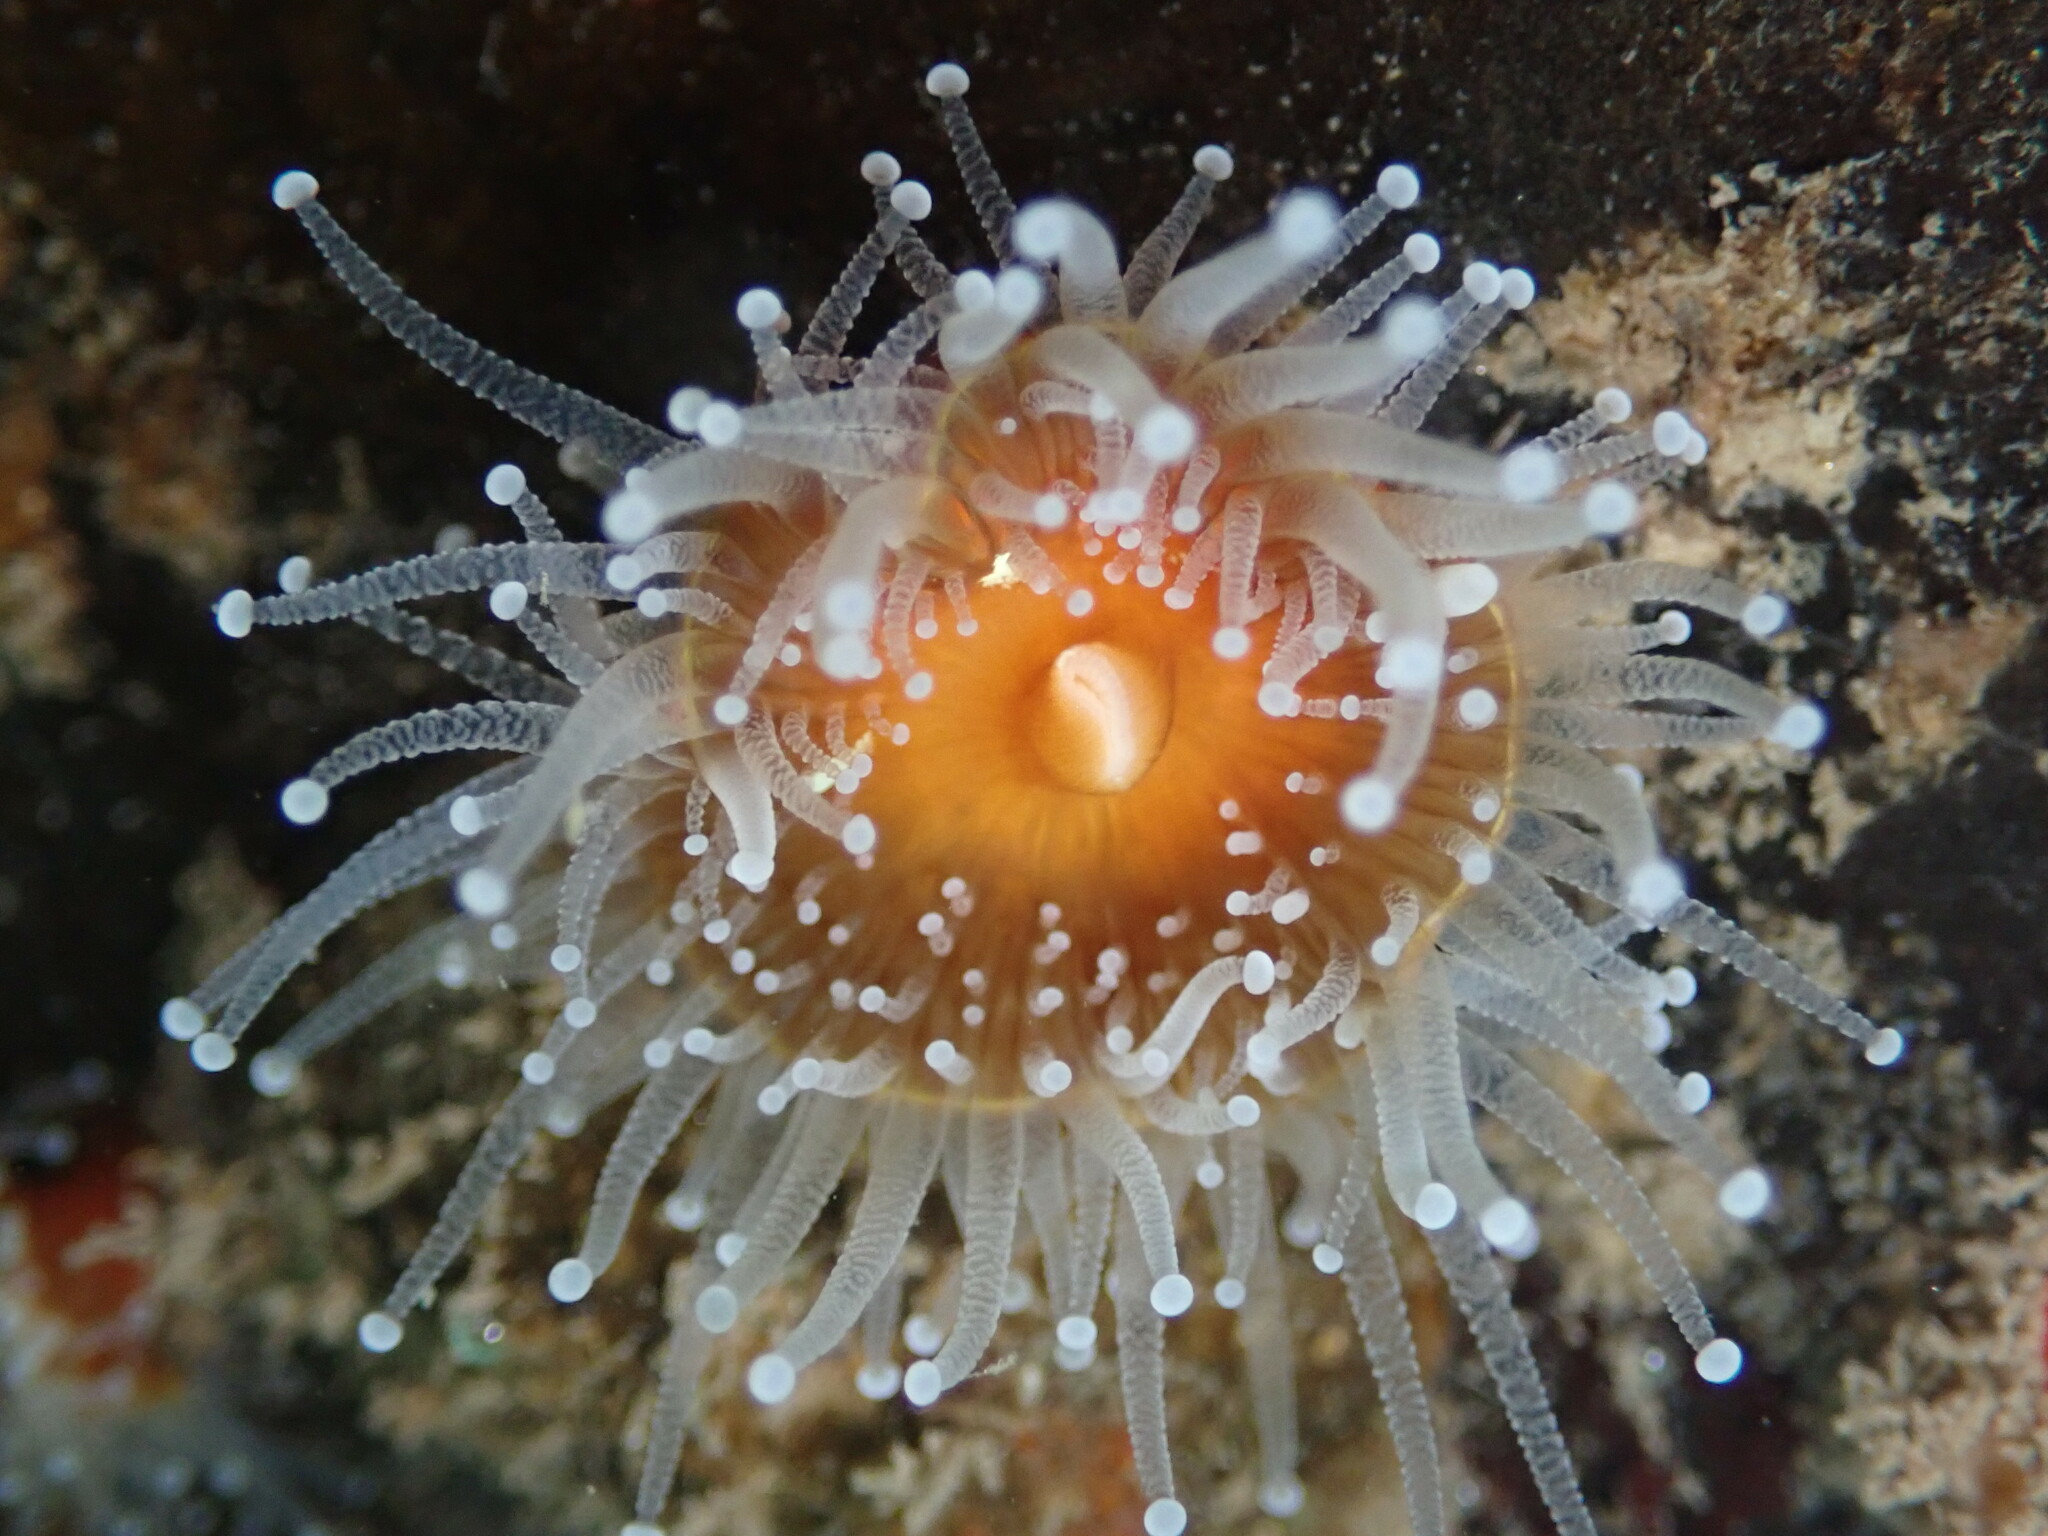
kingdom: Animalia
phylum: Cnidaria
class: Anthozoa
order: Corallimorpharia
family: Corallimorphidae
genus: Corynactis
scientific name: Corynactis californica
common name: Strawberry corallimorpharian
